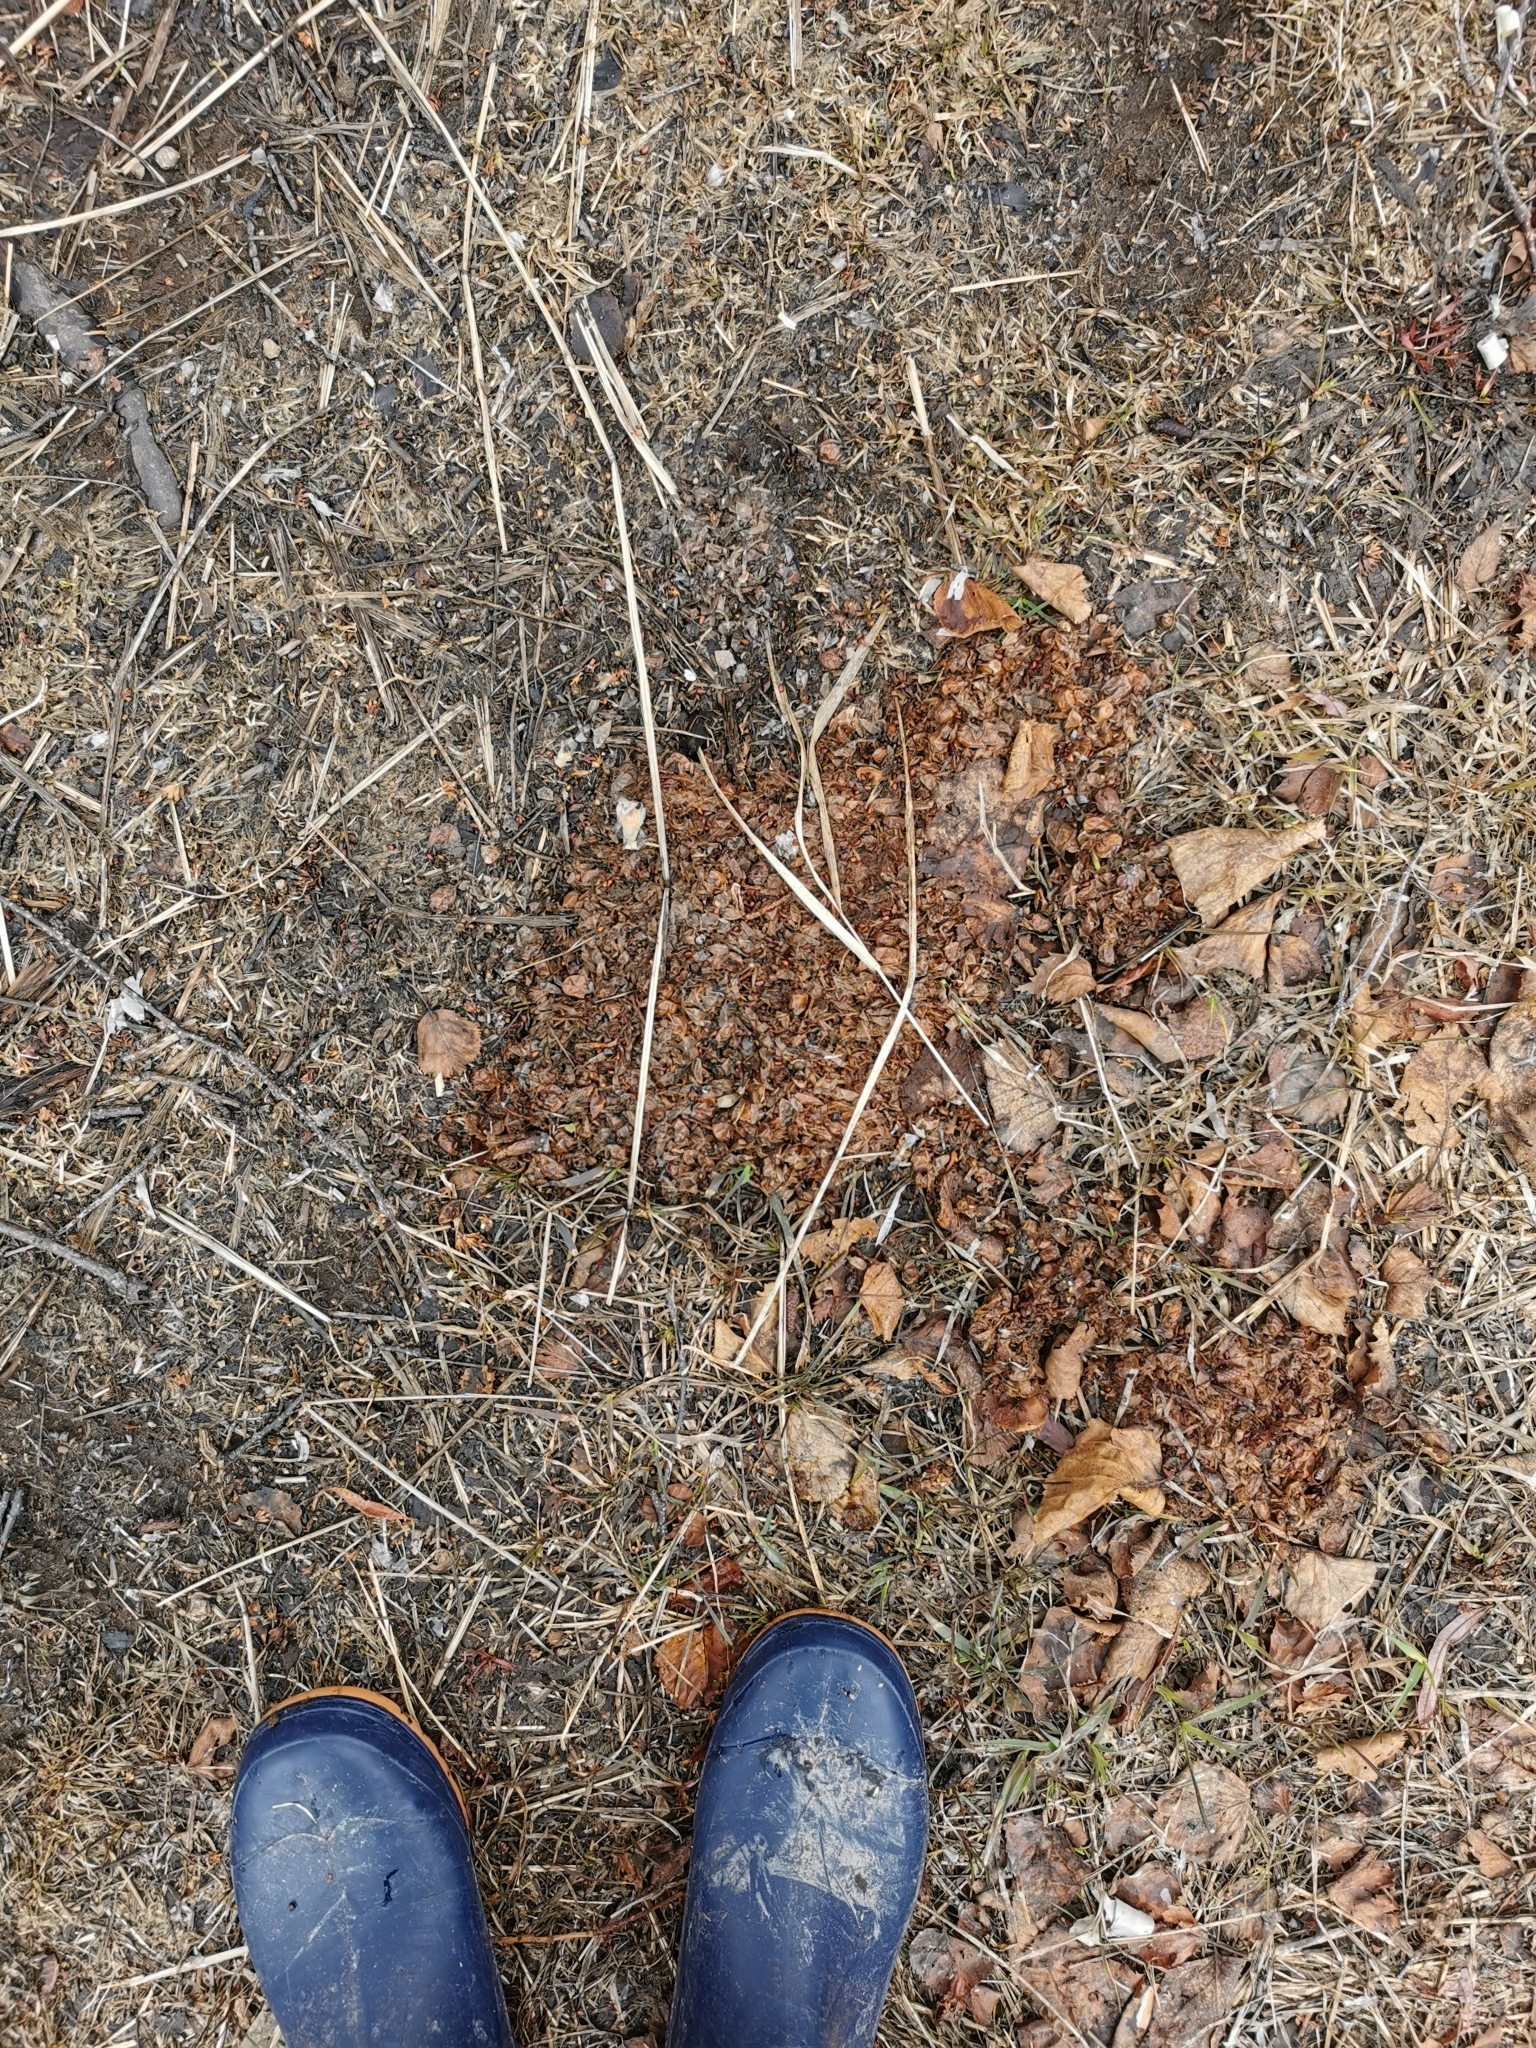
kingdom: Animalia
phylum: Chordata
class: Mammalia
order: Carnivora
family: Ursidae
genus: Ursus
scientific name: Ursus arctos
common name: Brown bear
